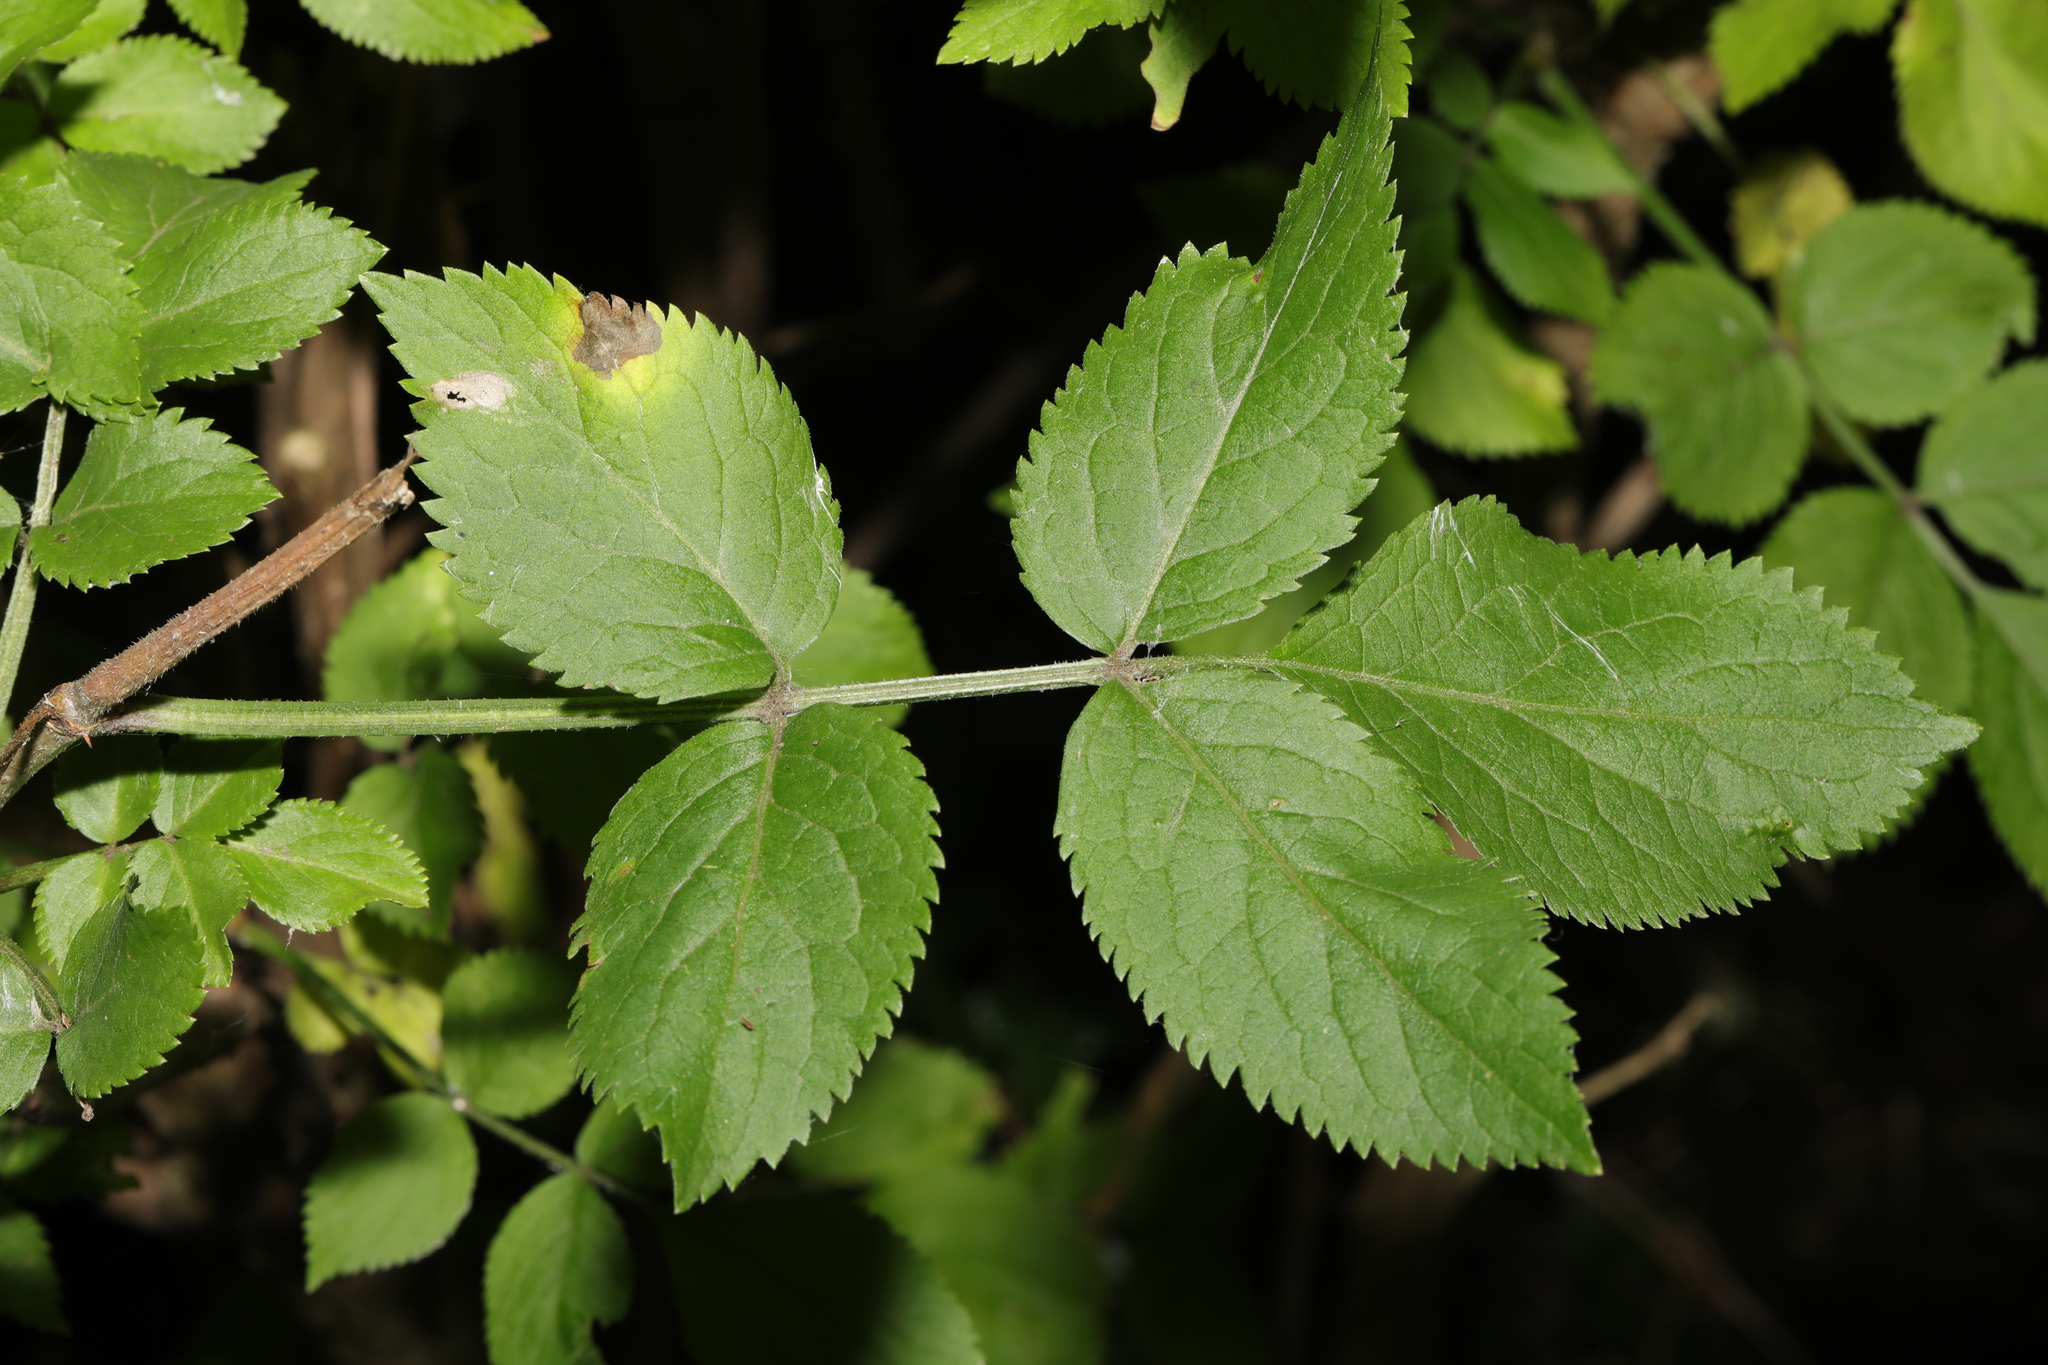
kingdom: Plantae
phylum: Tracheophyta
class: Magnoliopsida
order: Dipsacales
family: Viburnaceae
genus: Sambucus
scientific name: Sambucus nigra
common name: Elder
